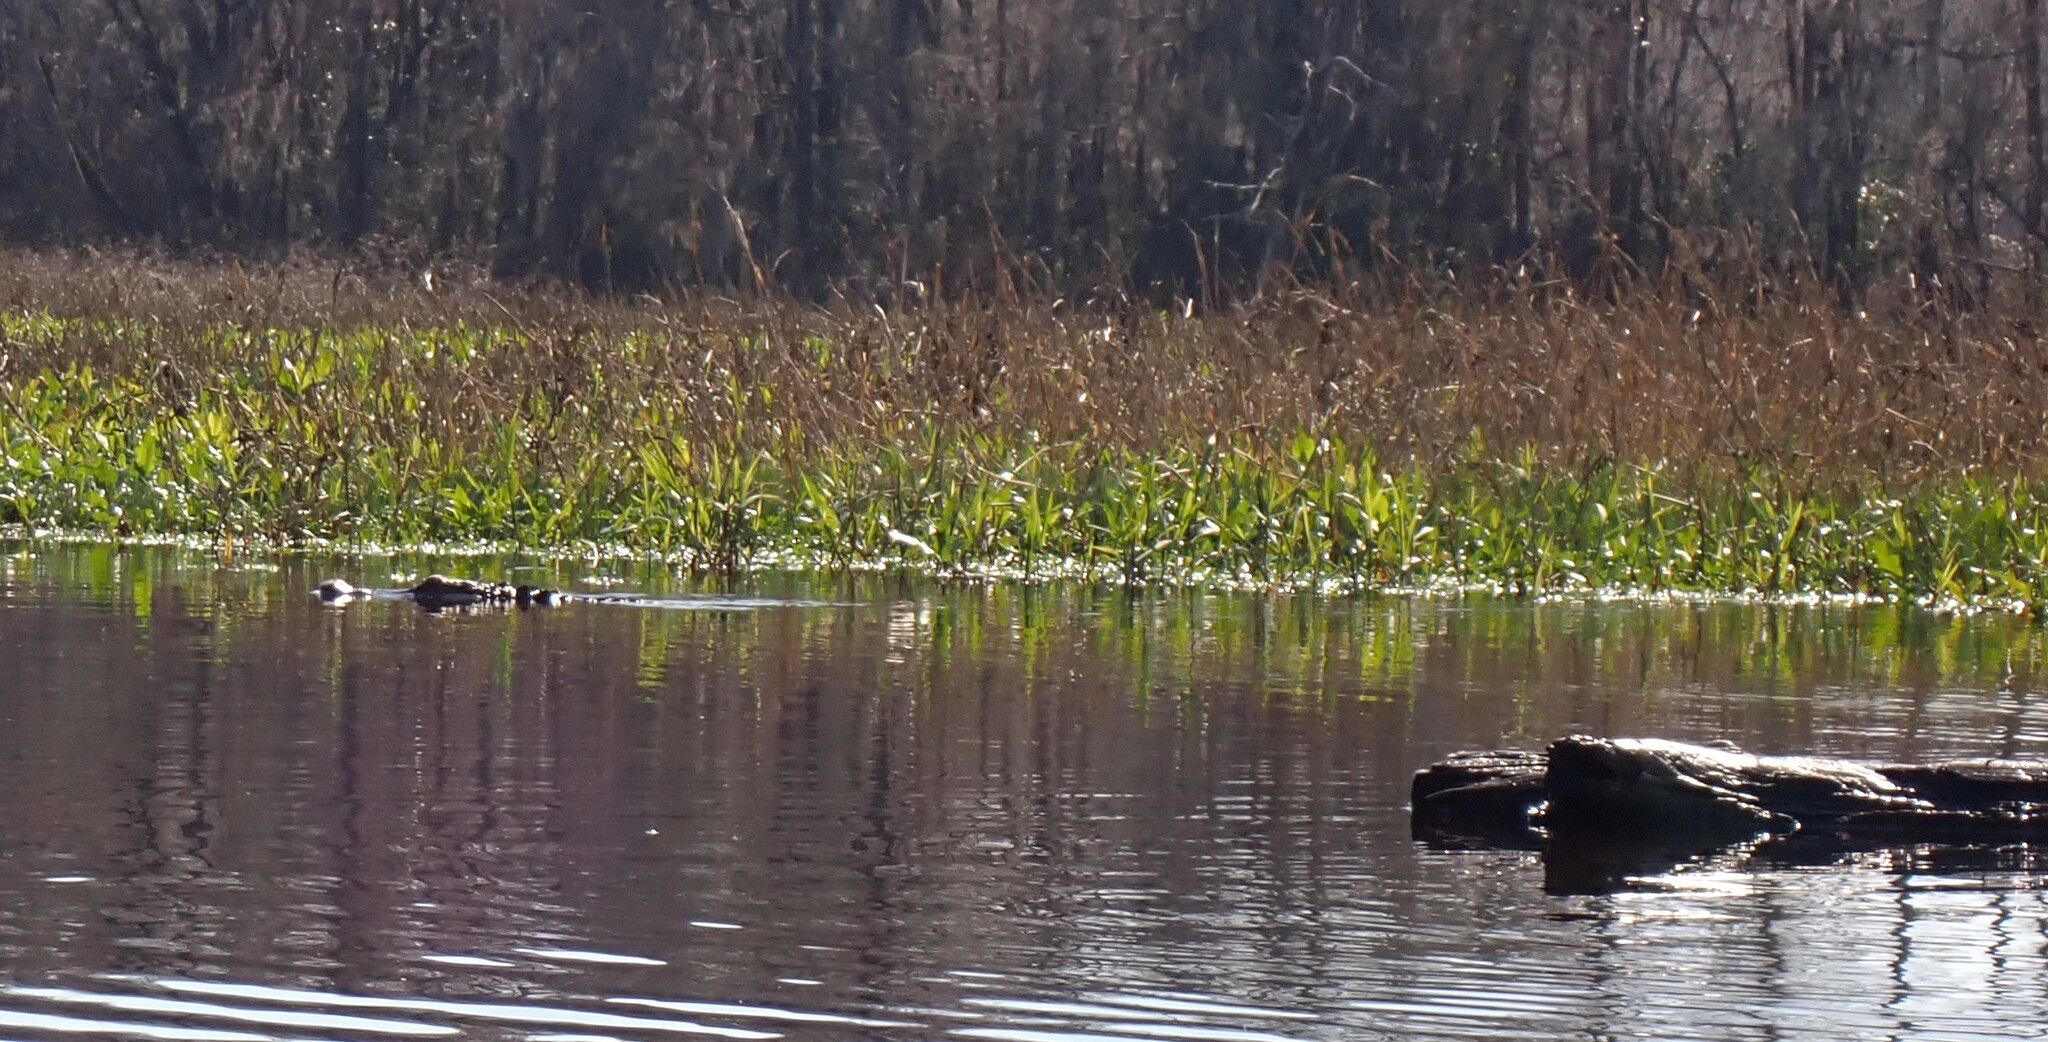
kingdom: Animalia
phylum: Chordata
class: Crocodylia
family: Alligatoridae
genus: Alligator
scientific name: Alligator mississippiensis
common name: American alligator
